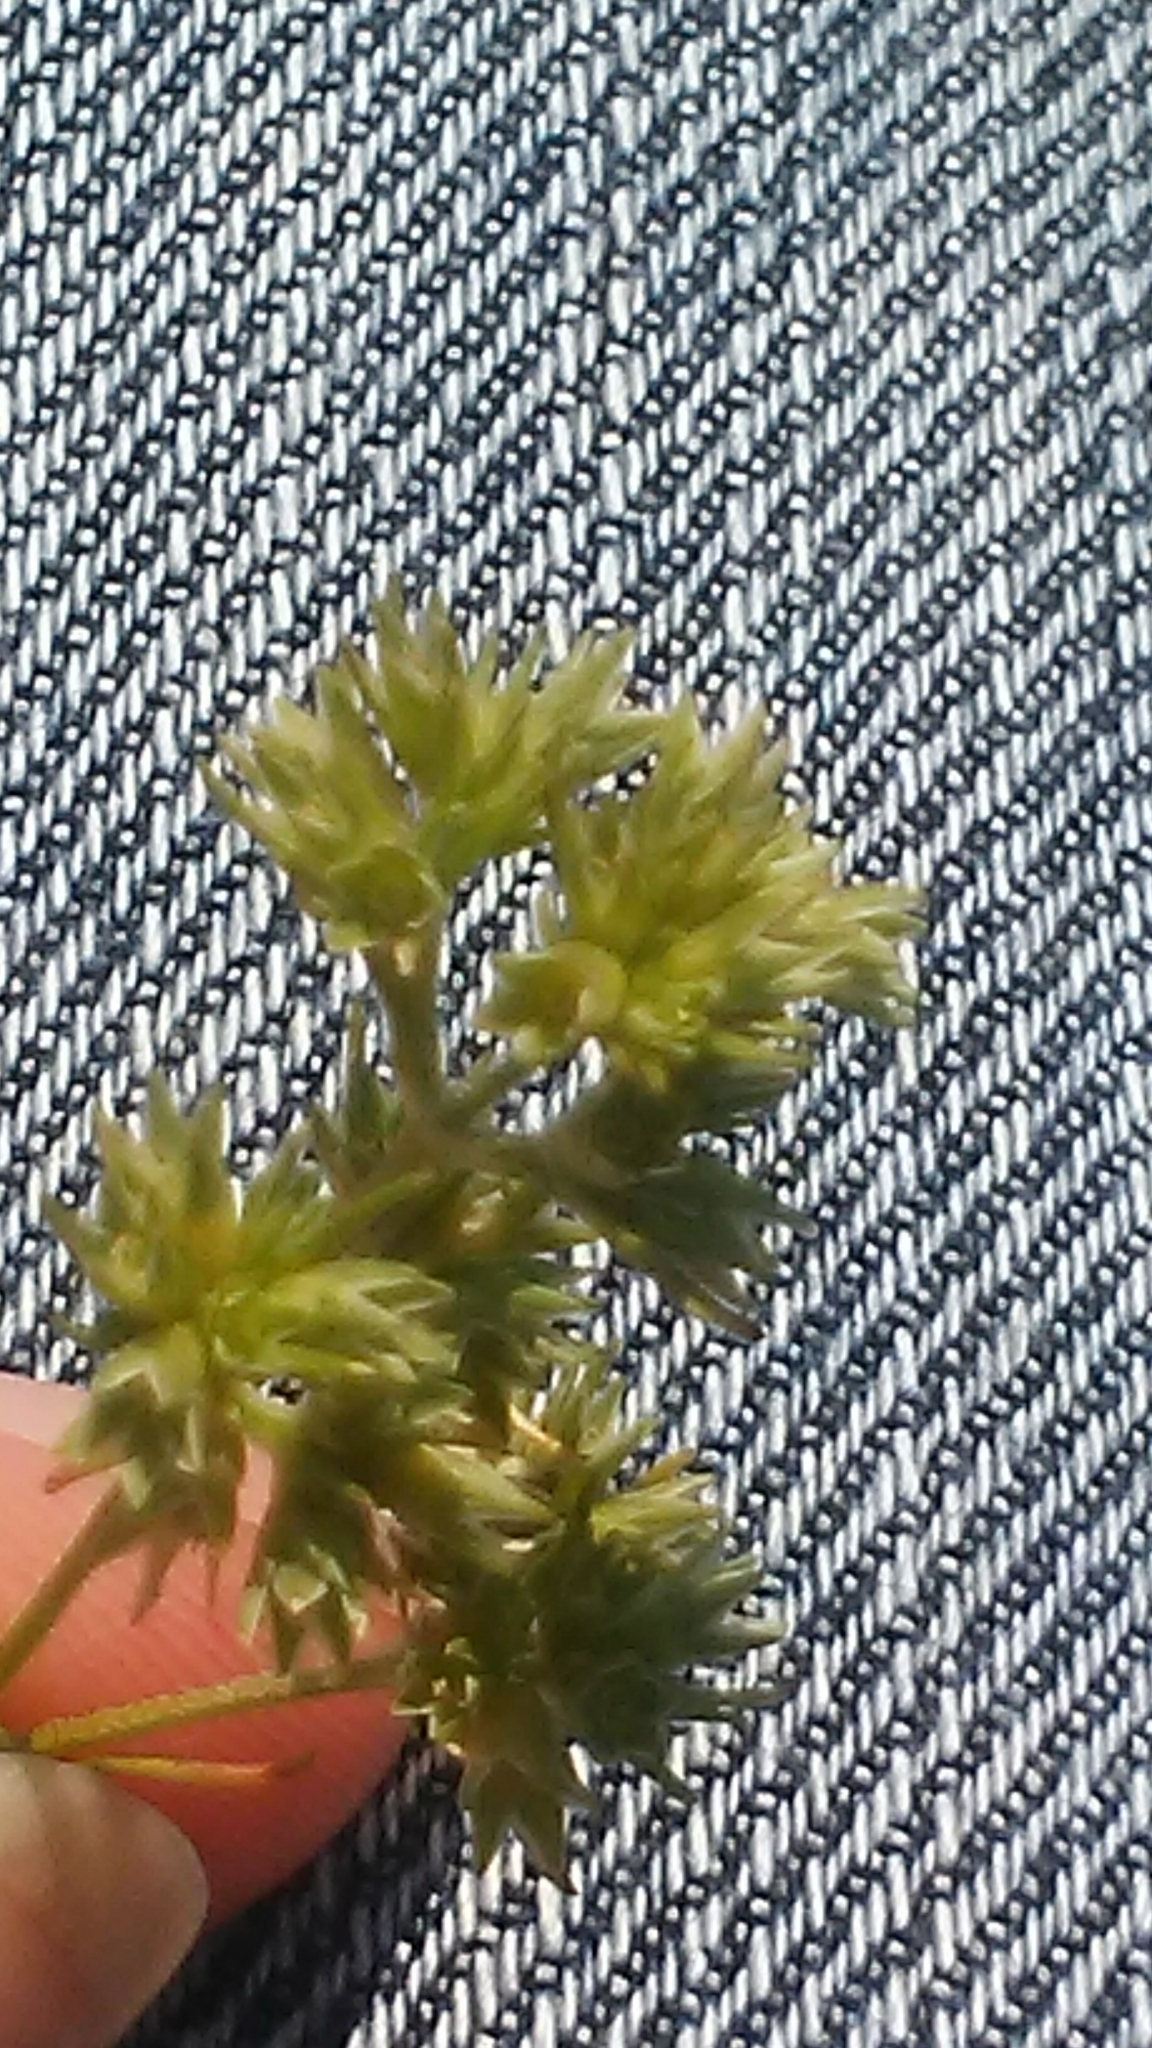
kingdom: Plantae
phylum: Tracheophyta
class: Magnoliopsida
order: Caryophyllales
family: Caryophyllaceae
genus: Scleranthus
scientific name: Scleranthus annuus
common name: Annual knawel
